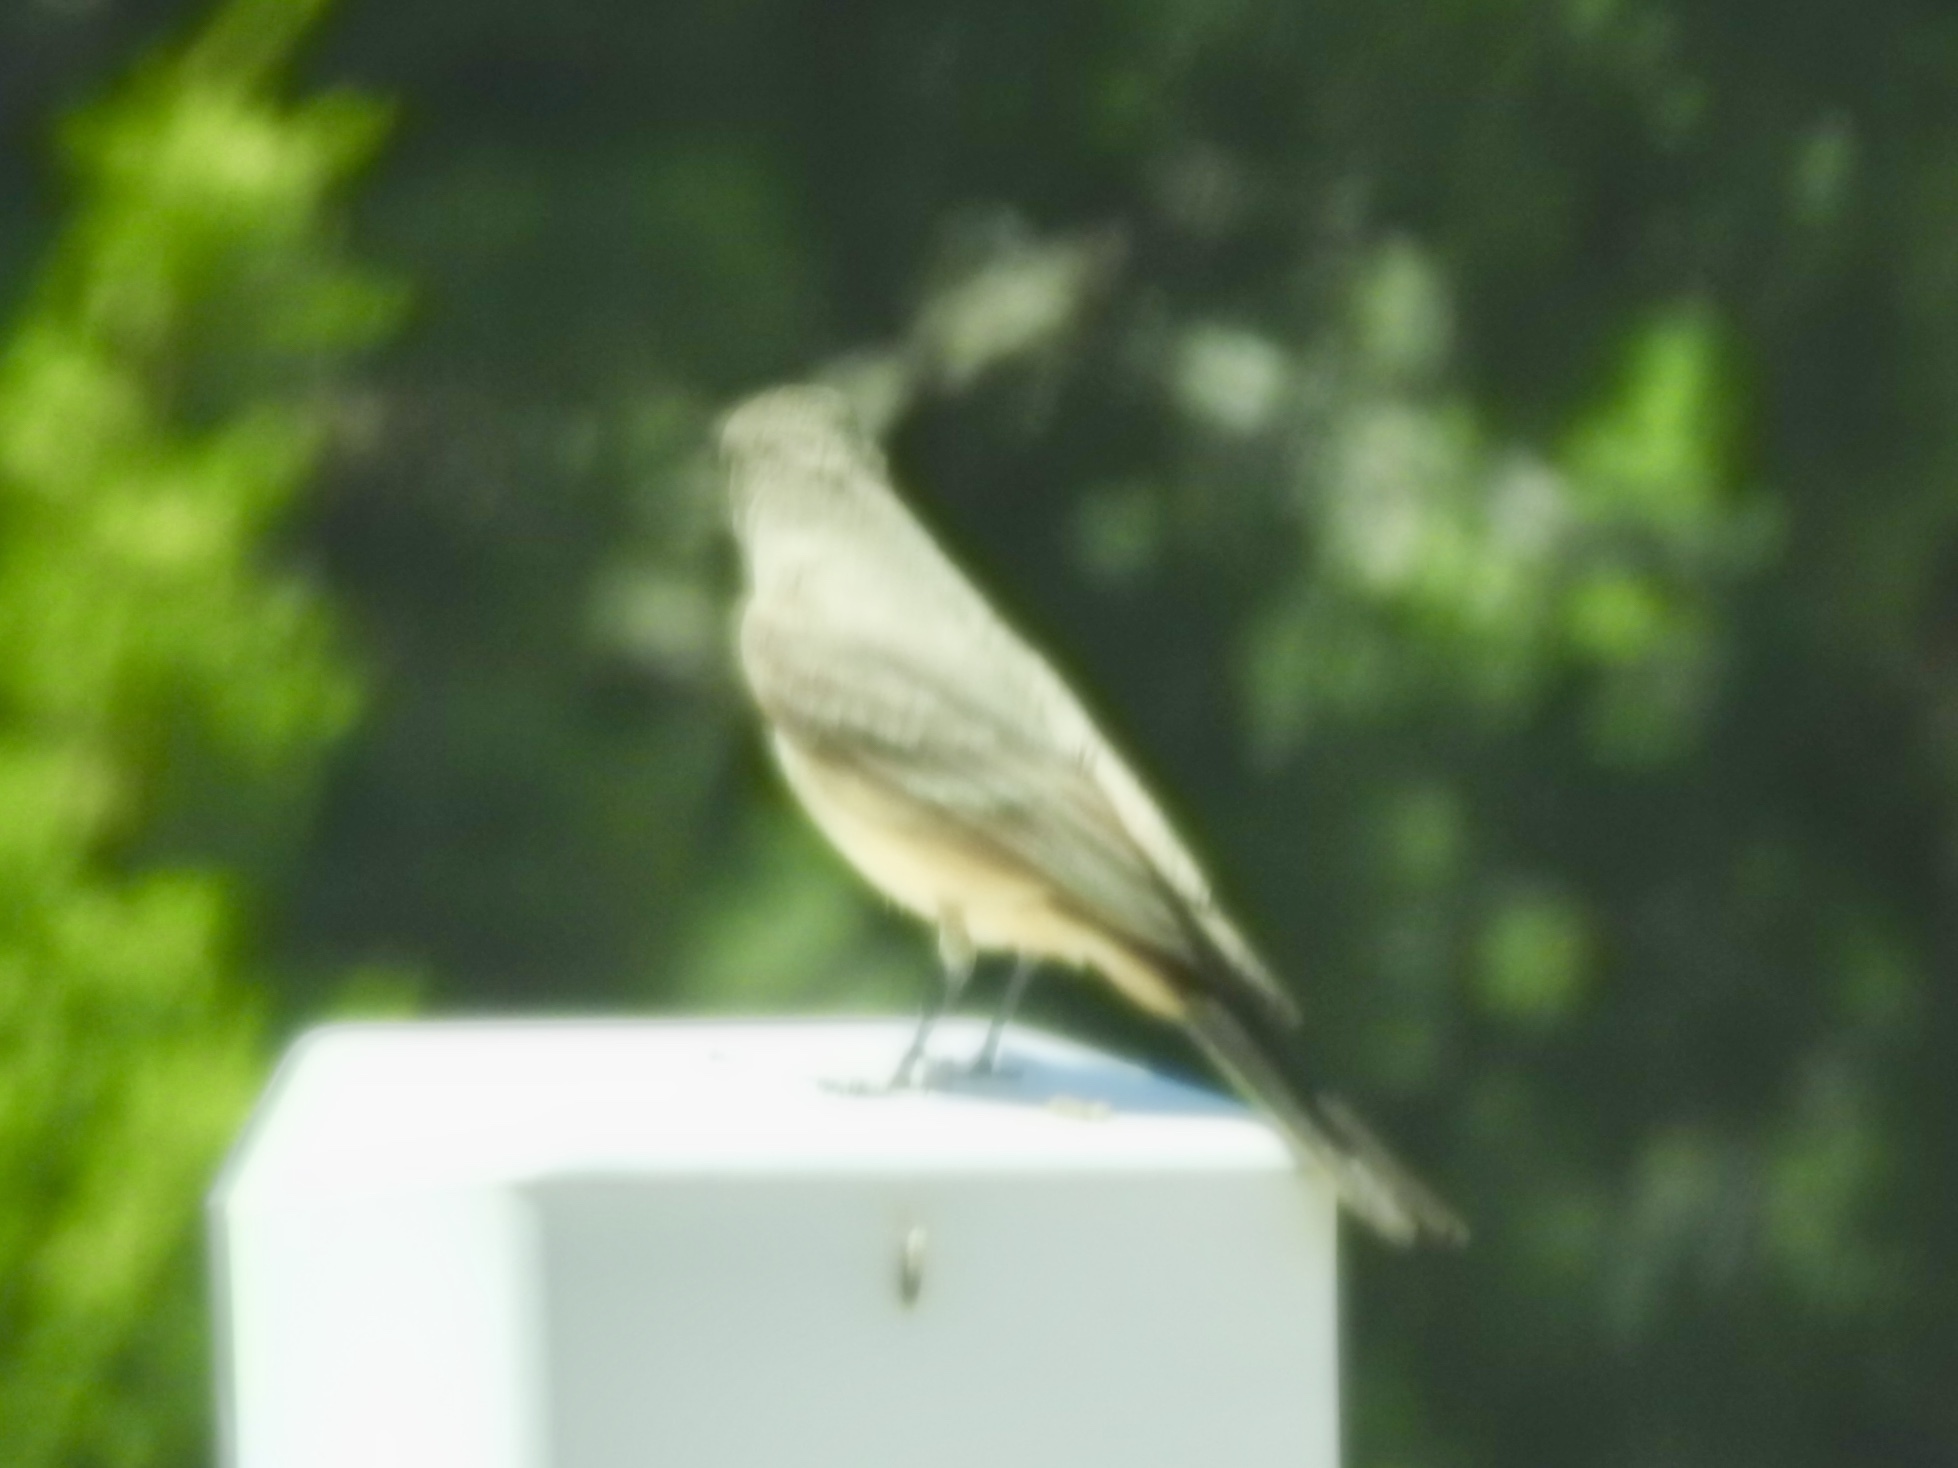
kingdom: Animalia
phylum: Chordata
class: Aves
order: Passeriformes
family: Tyrannidae
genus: Sayornis
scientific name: Sayornis saya
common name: Say's phoebe
